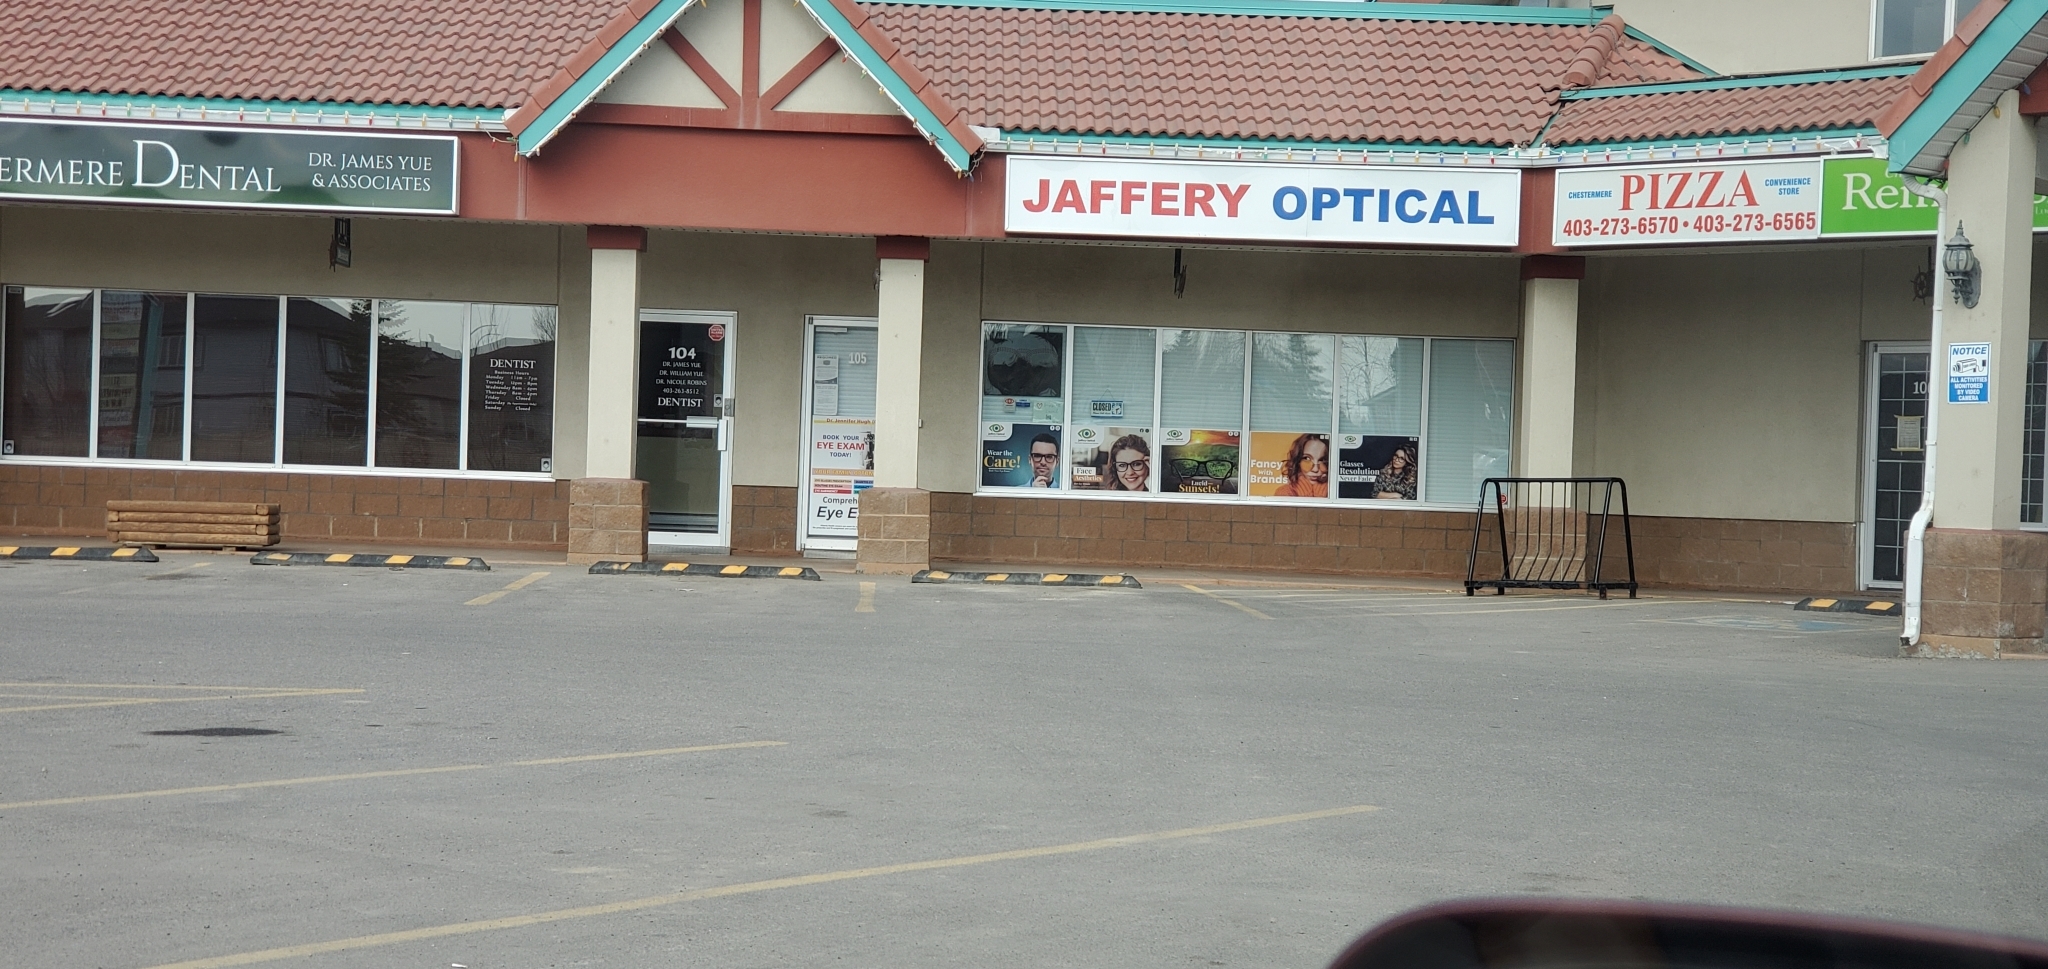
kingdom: Animalia
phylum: Chordata
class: Aves
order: Piciformes
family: Picidae
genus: Colaptes
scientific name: Colaptes auratus
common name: Northern flicker
